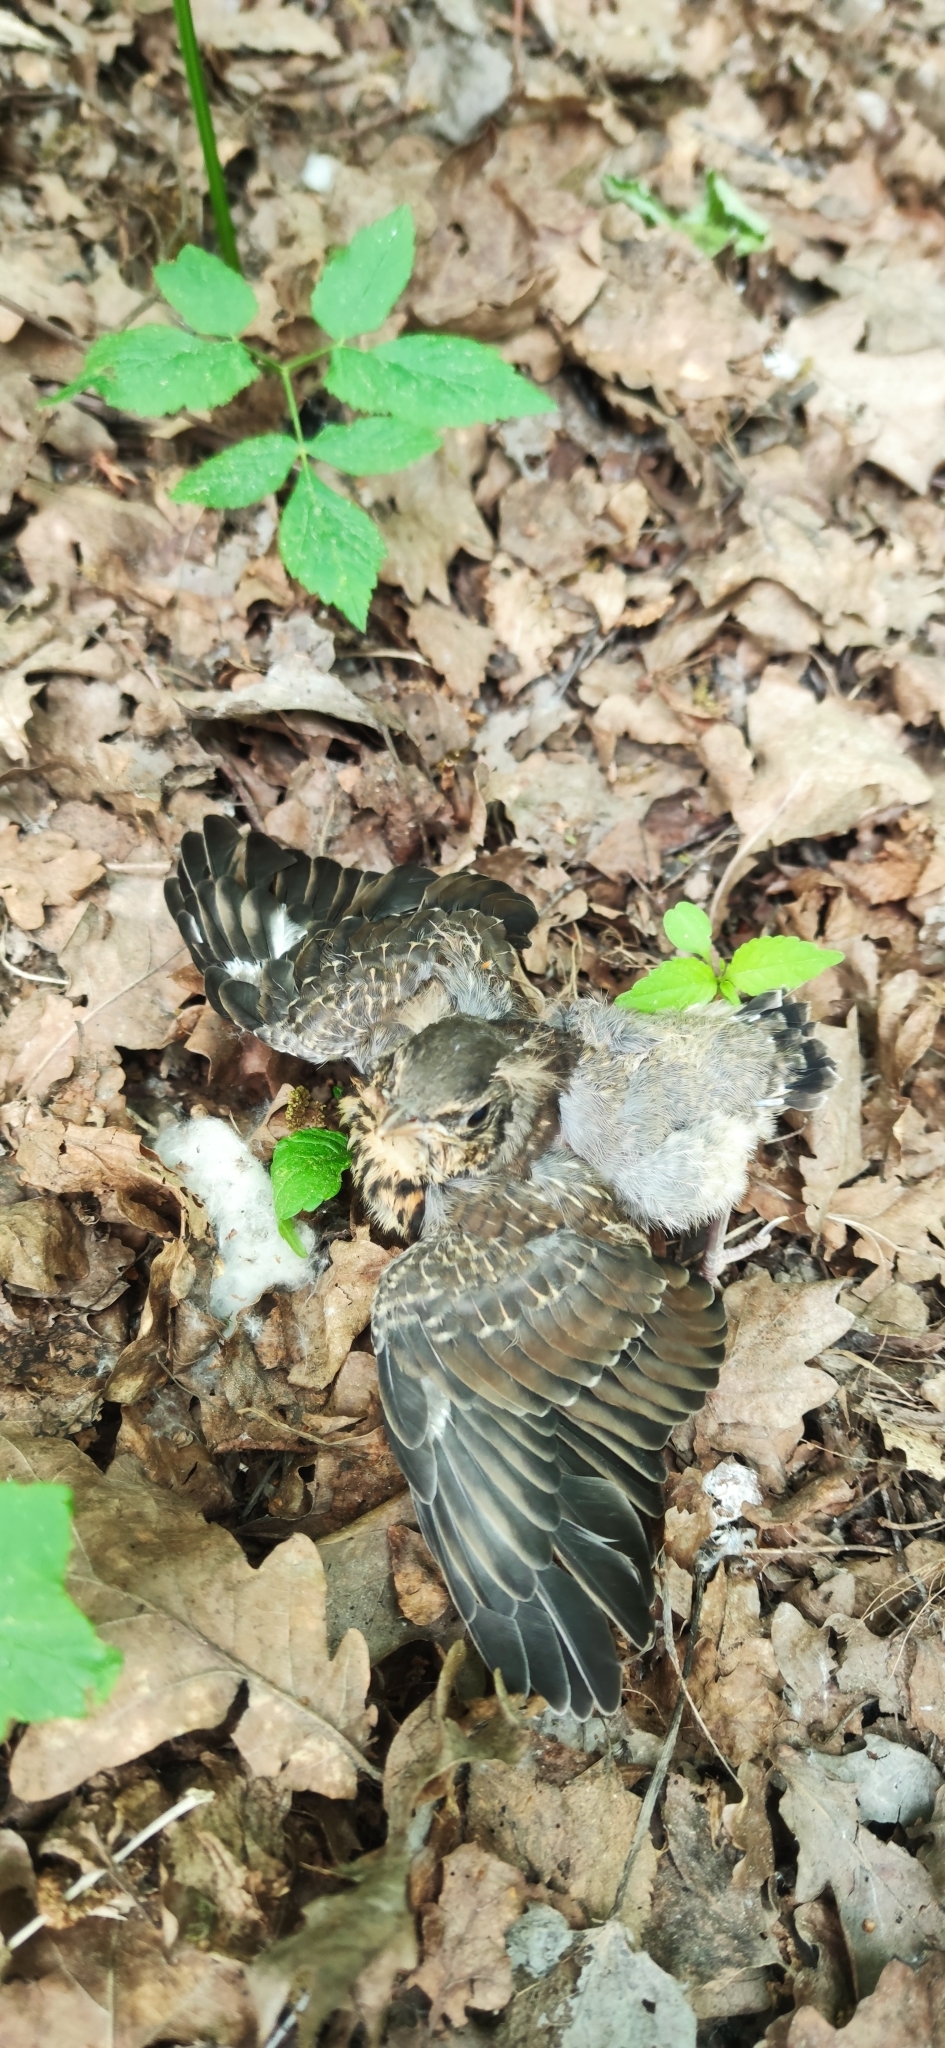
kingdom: Animalia
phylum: Chordata
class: Aves
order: Passeriformes
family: Turdidae
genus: Turdus
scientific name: Turdus pilaris
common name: Fieldfare
